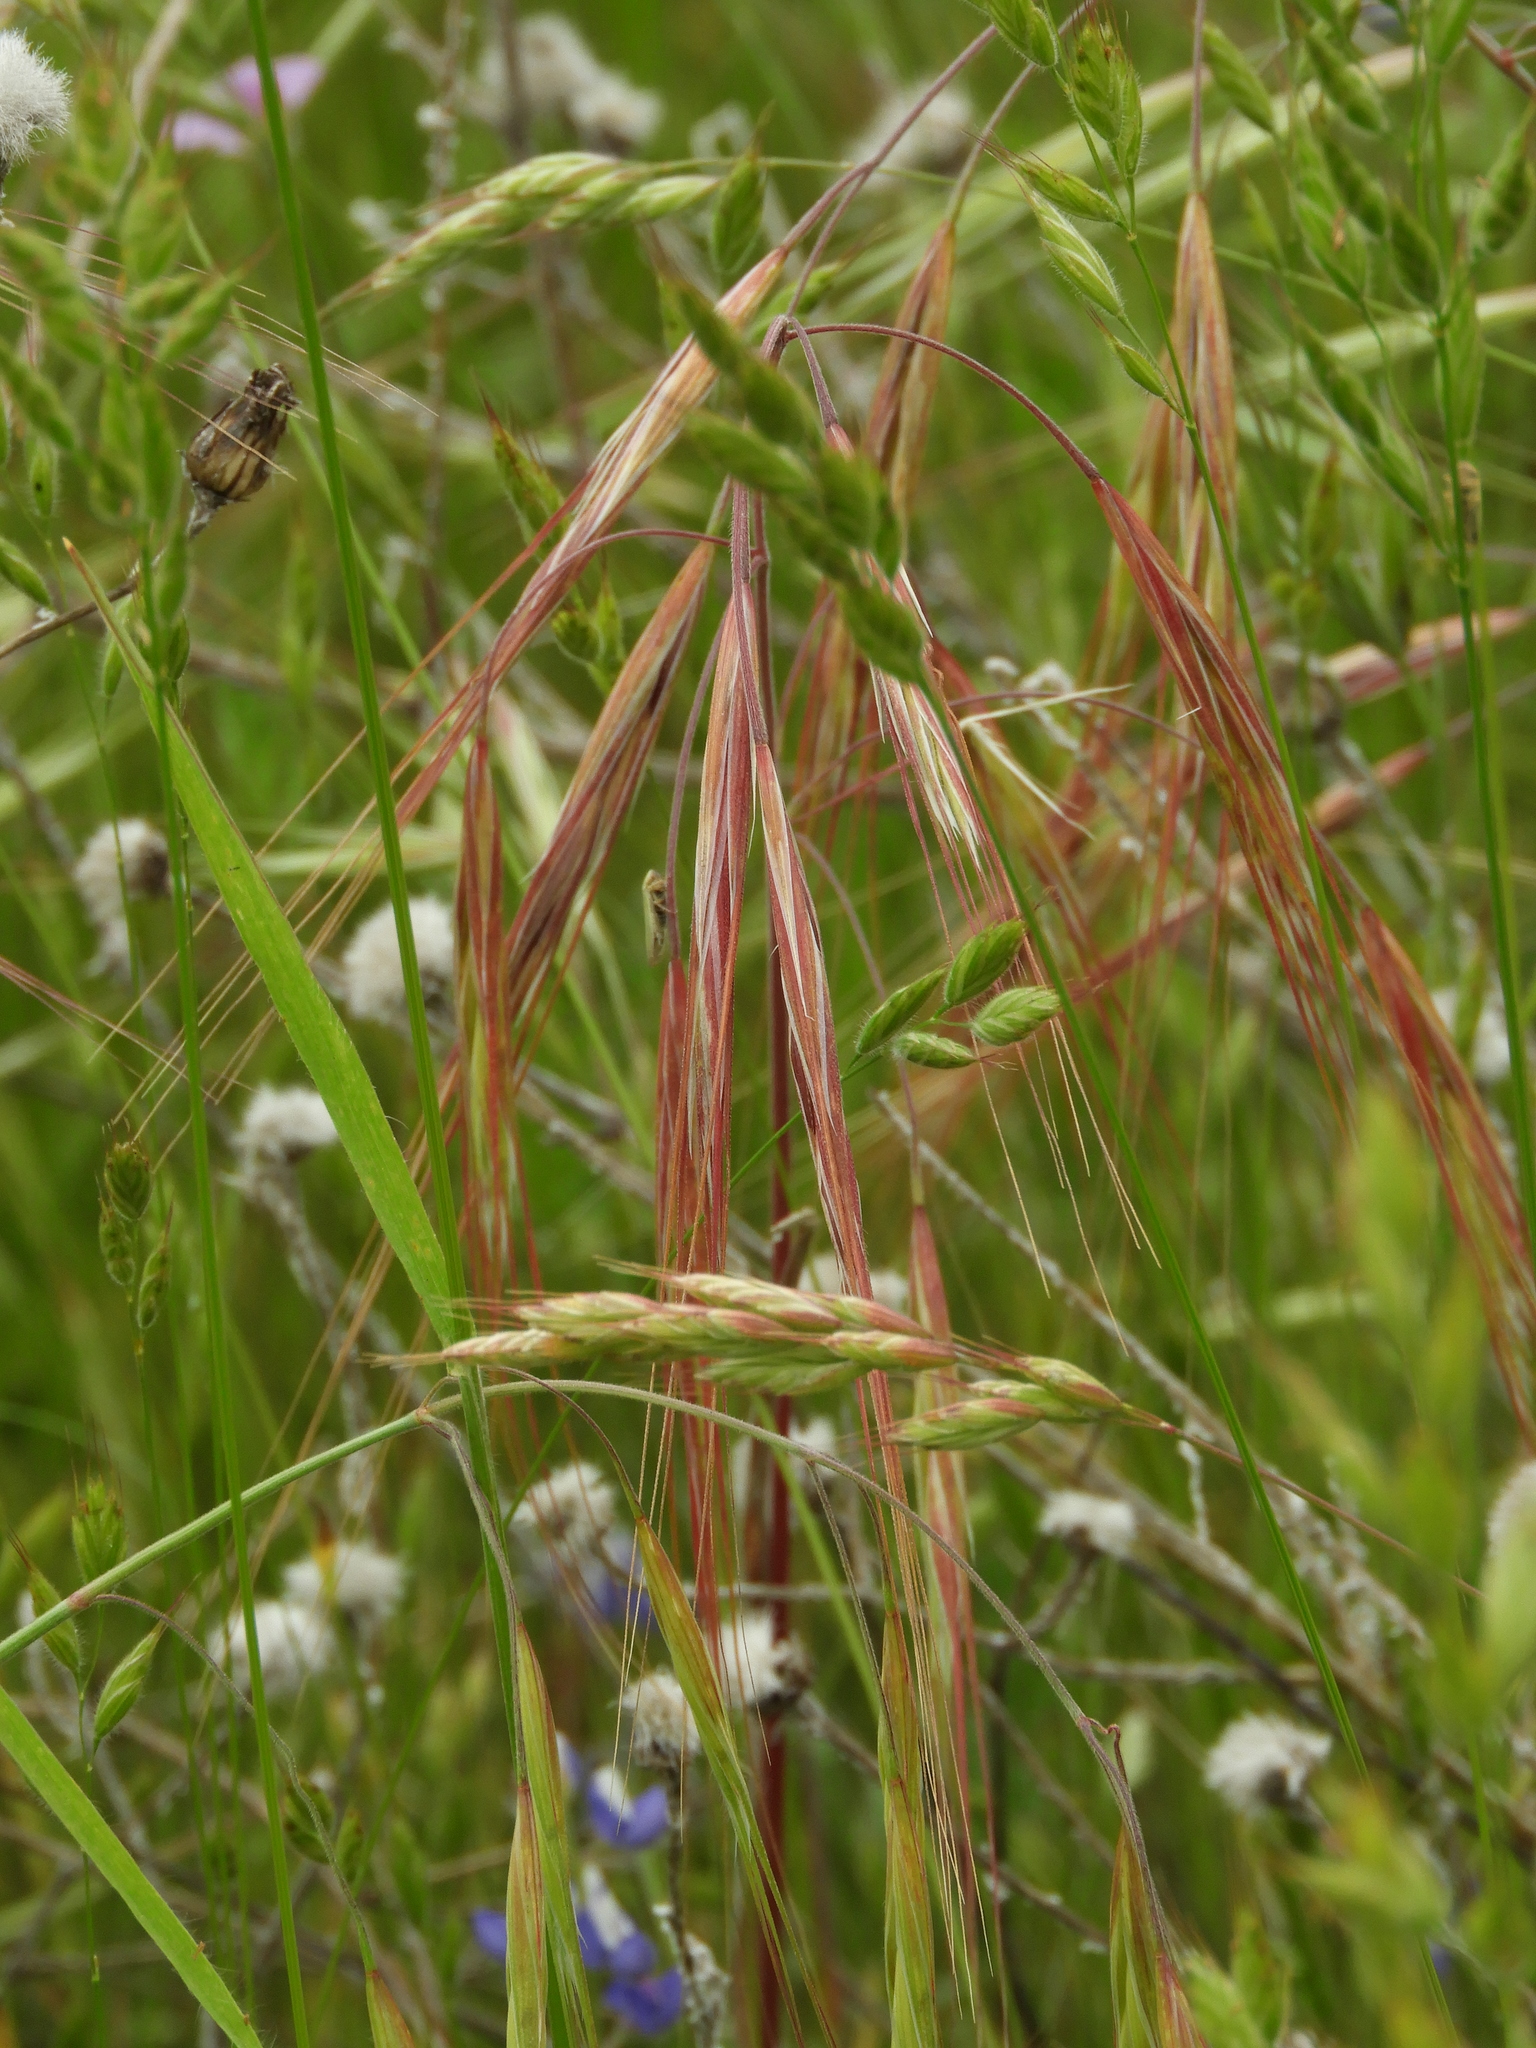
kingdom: Plantae
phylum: Tracheophyta
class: Liliopsida
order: Poales
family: Poaceae
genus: Bromus
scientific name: Bromus diandrus
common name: Ripgut brome
